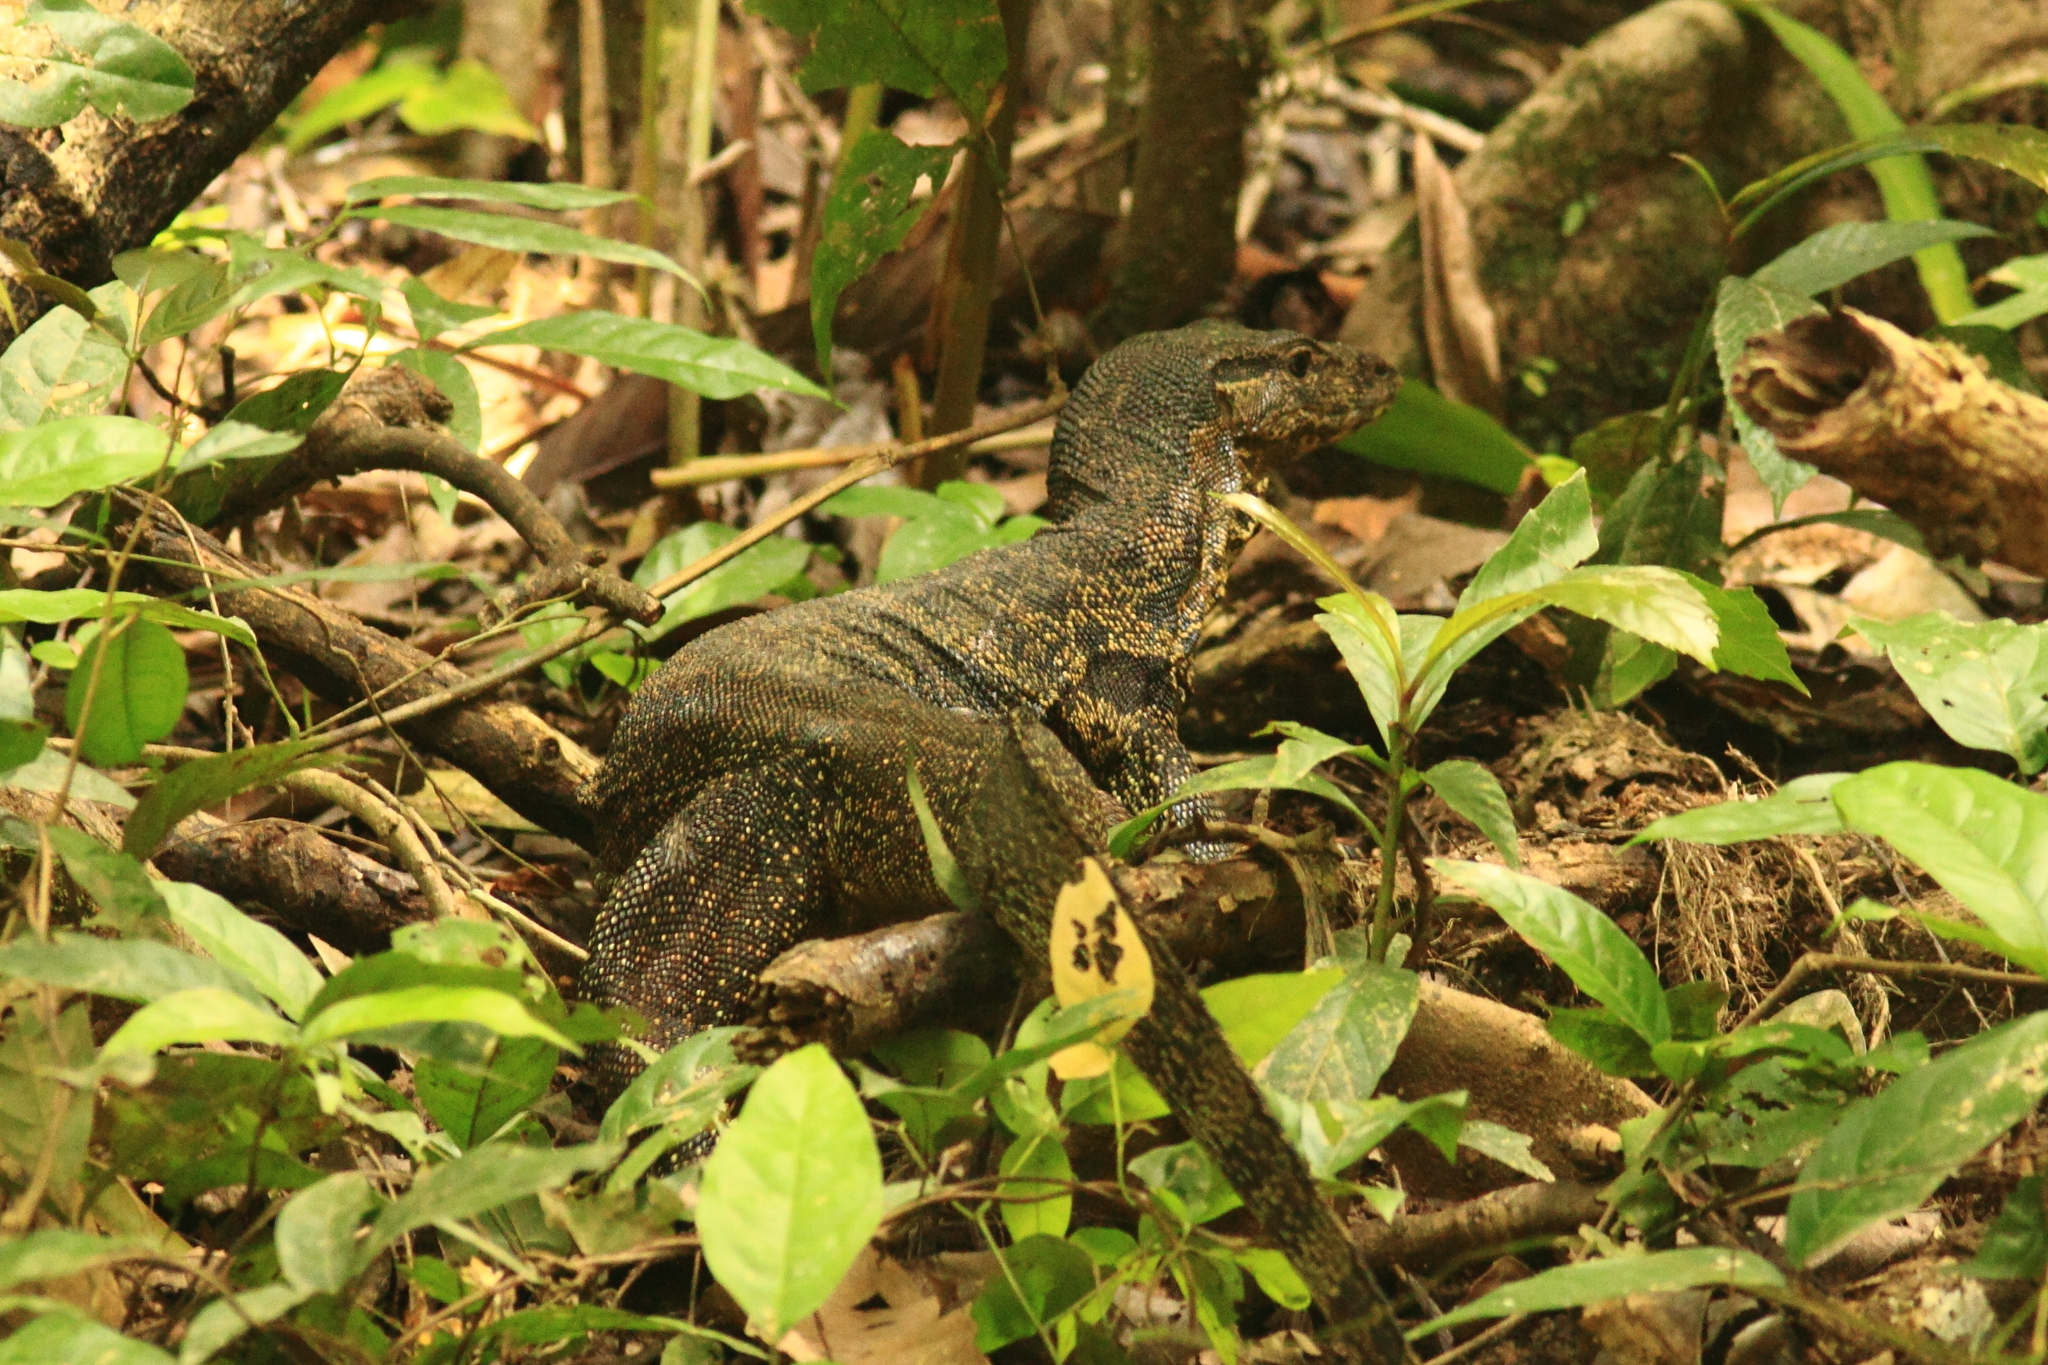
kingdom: Animalia
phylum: Chordata
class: Squamata
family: Varanidae
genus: Varanus
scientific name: Varanus salvator
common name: Common water monitor
